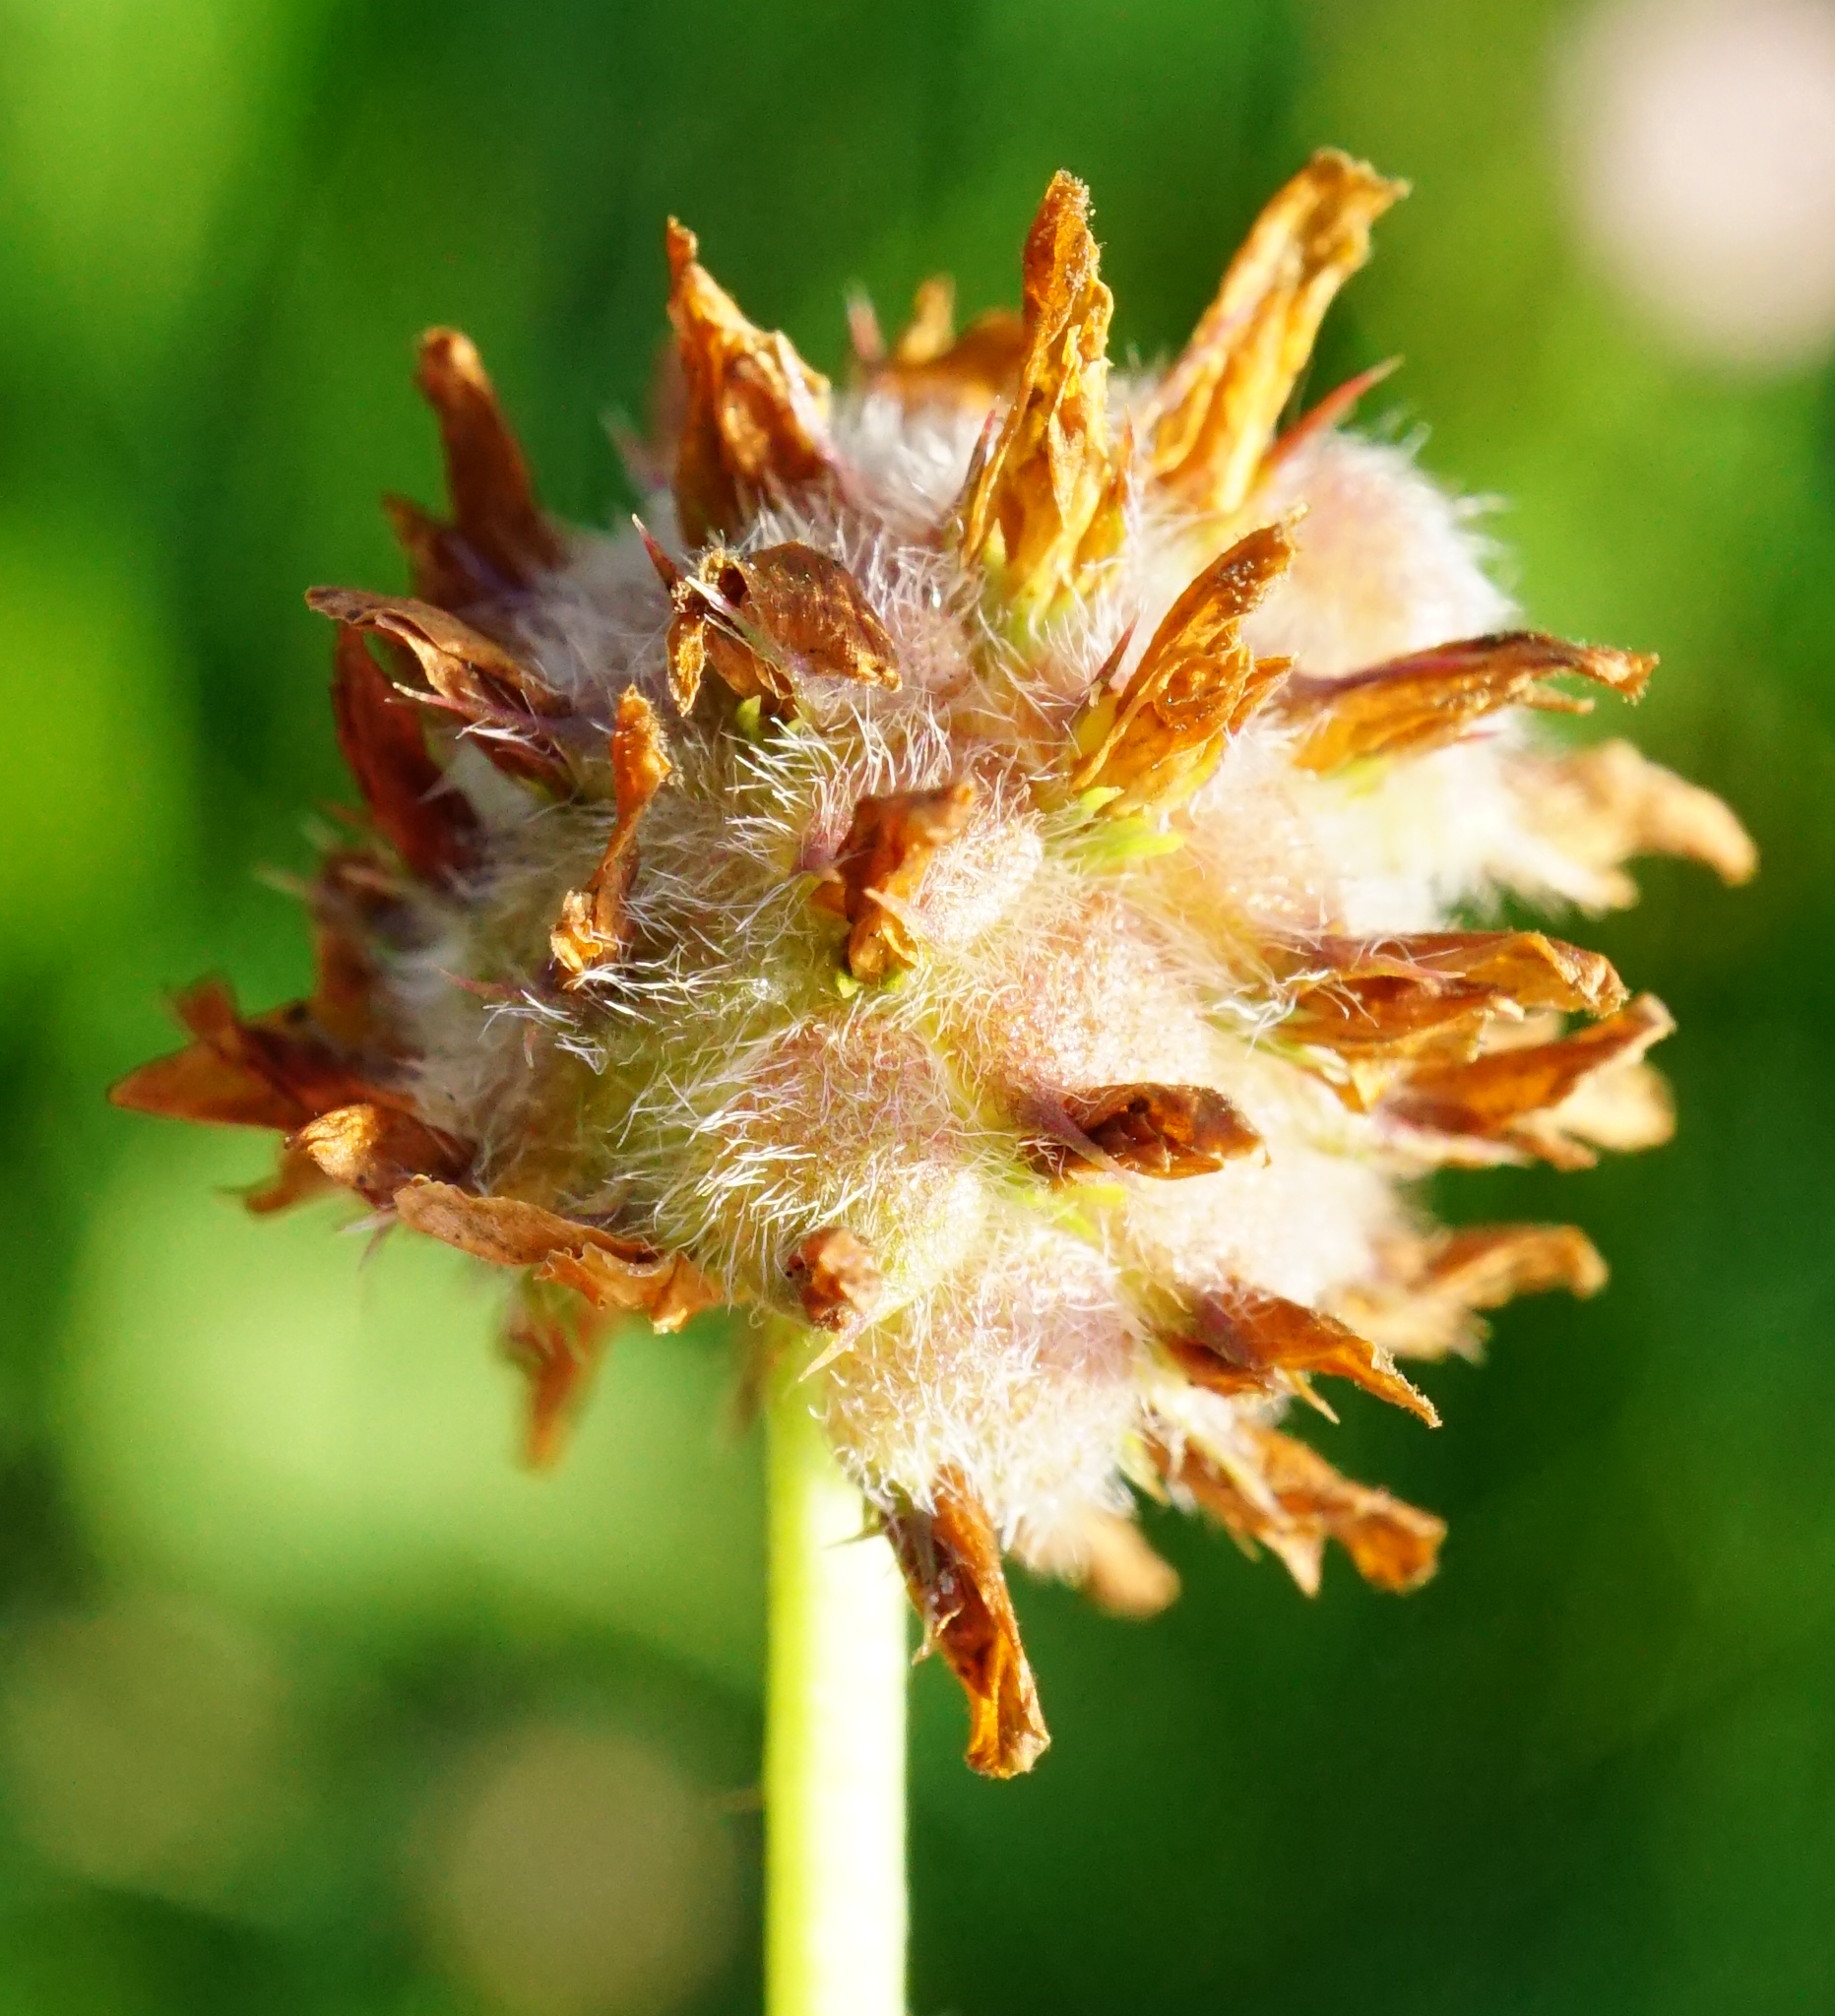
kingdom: Plantae
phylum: Tracheophyta
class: Magnoliopsida
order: Fabales
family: Fabaceae
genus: Trifolium
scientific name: Trifolium fragiferum
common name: Strawberry clover
